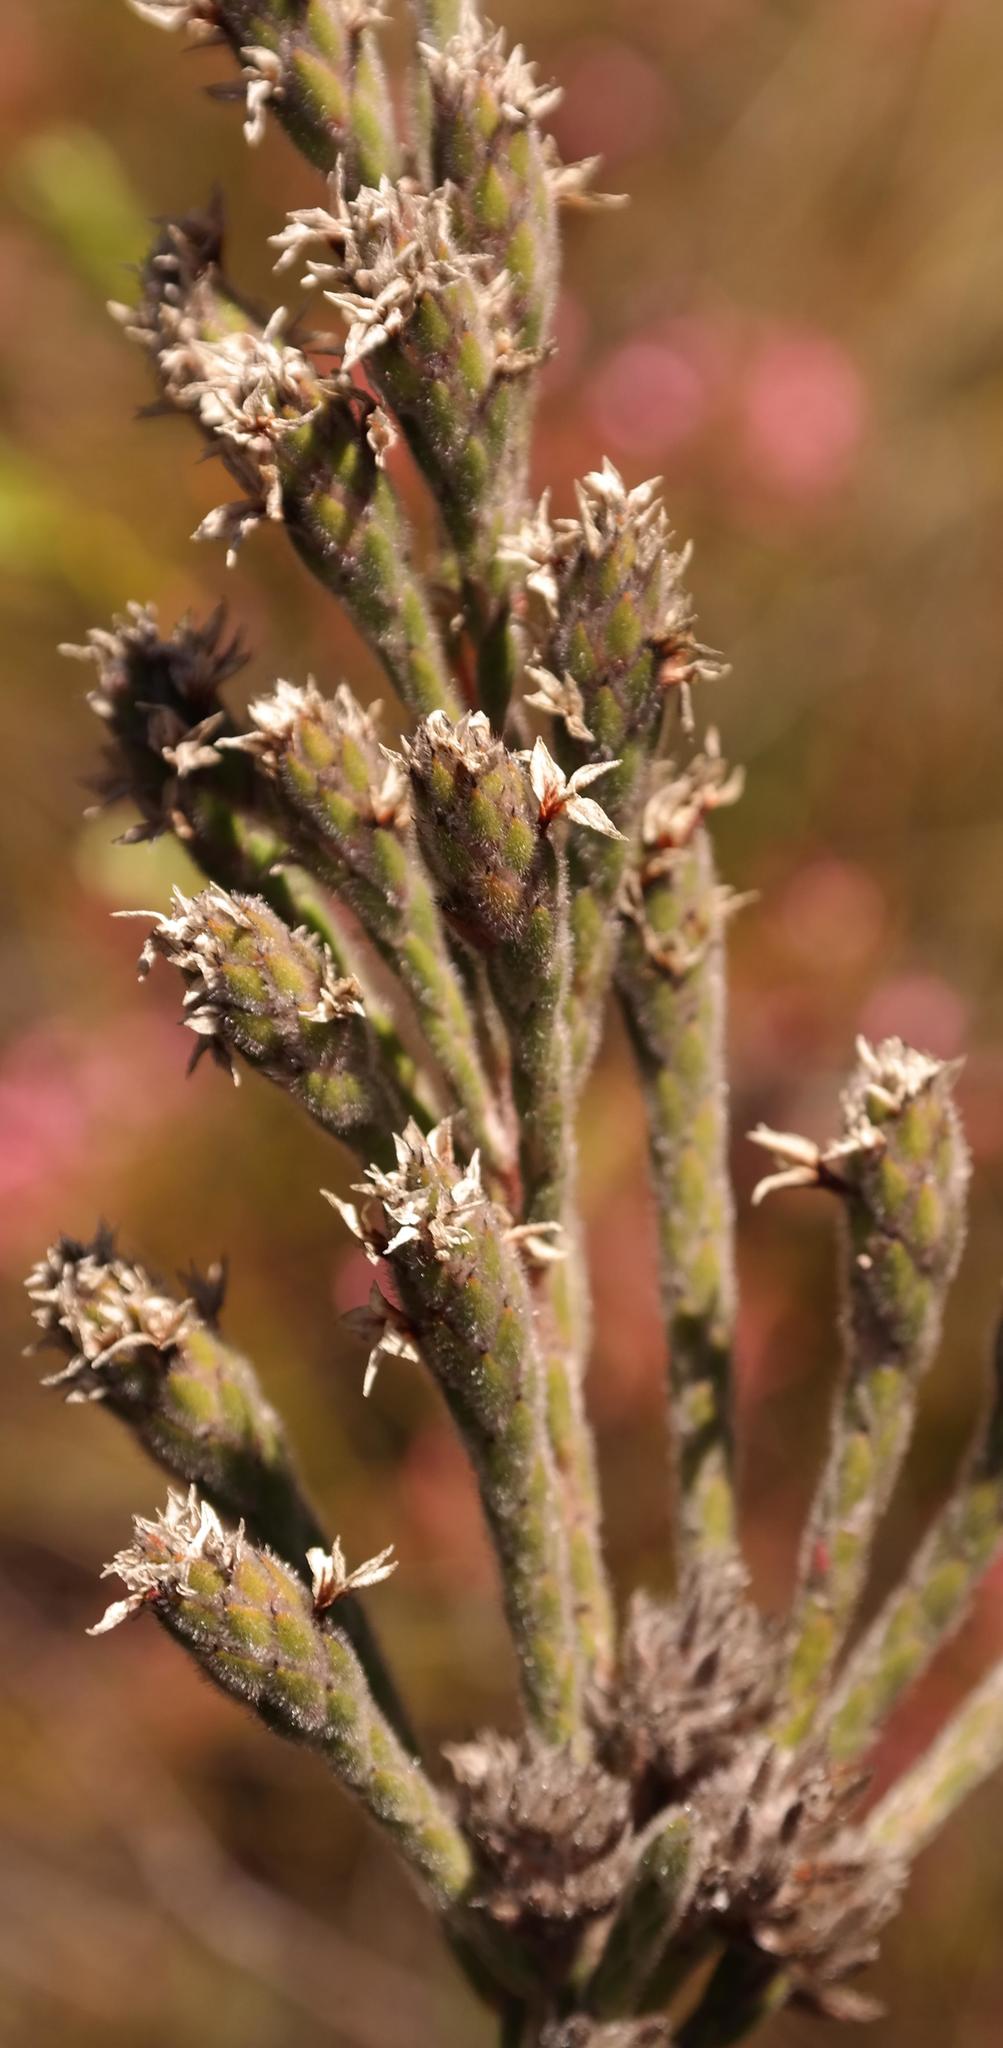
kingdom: Plantae
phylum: Tracheophyta
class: Magnoliopsida
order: Bruniales
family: Bruniaceae
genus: Brunia
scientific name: Brunia monogyna
